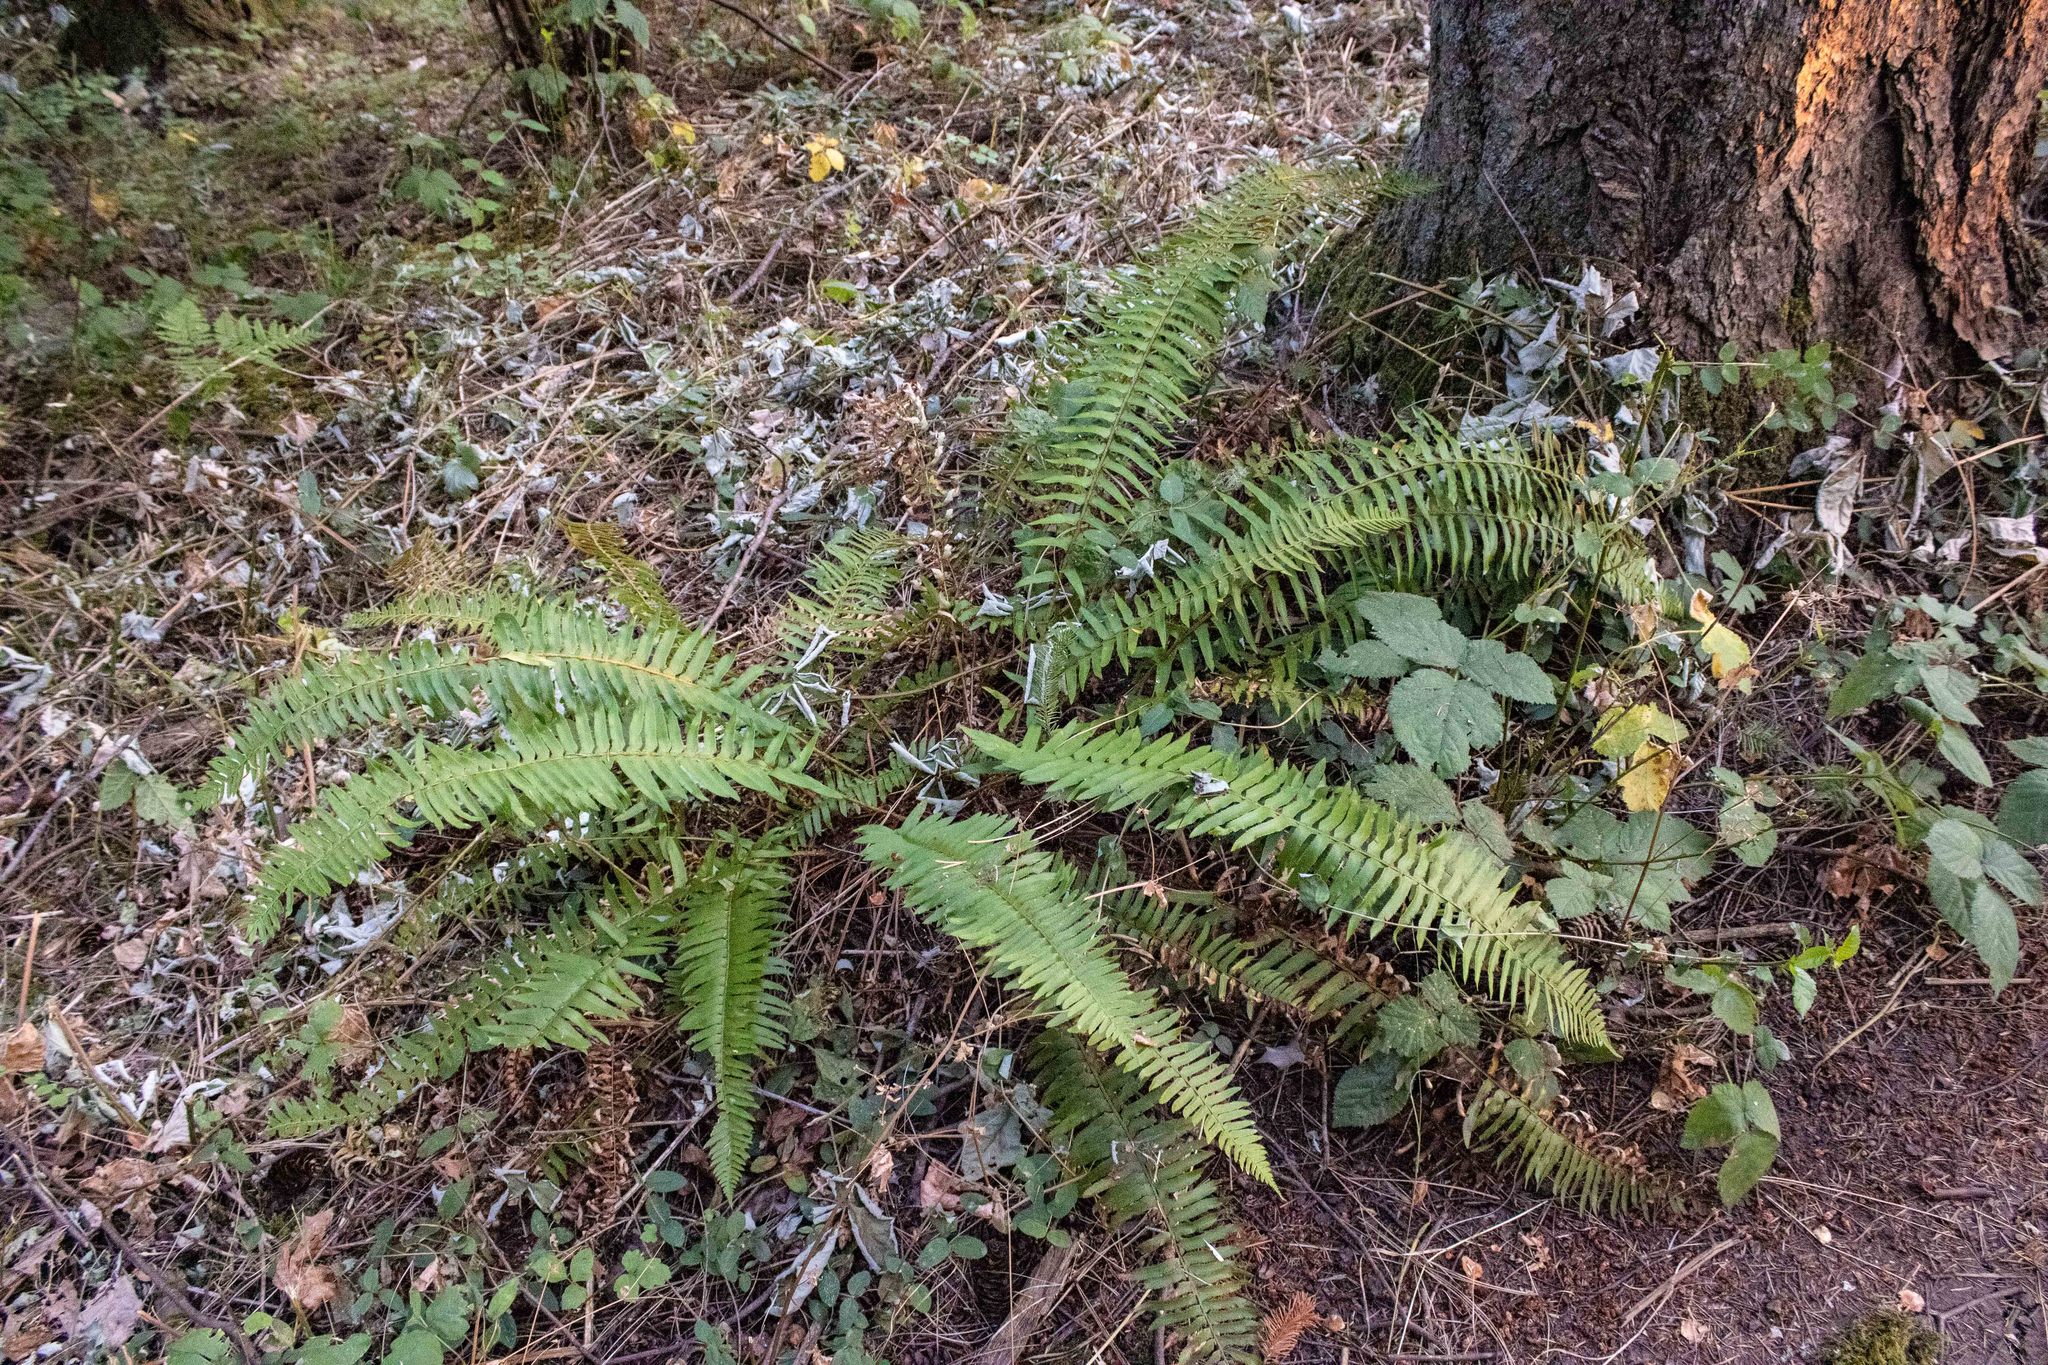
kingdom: Plantae
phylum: Tracheophyta
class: Polypodiopsida
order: Polypodiales
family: Dryopteridaceae
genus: Polystichum
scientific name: Polystichum munitum
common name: Western sword-fern
